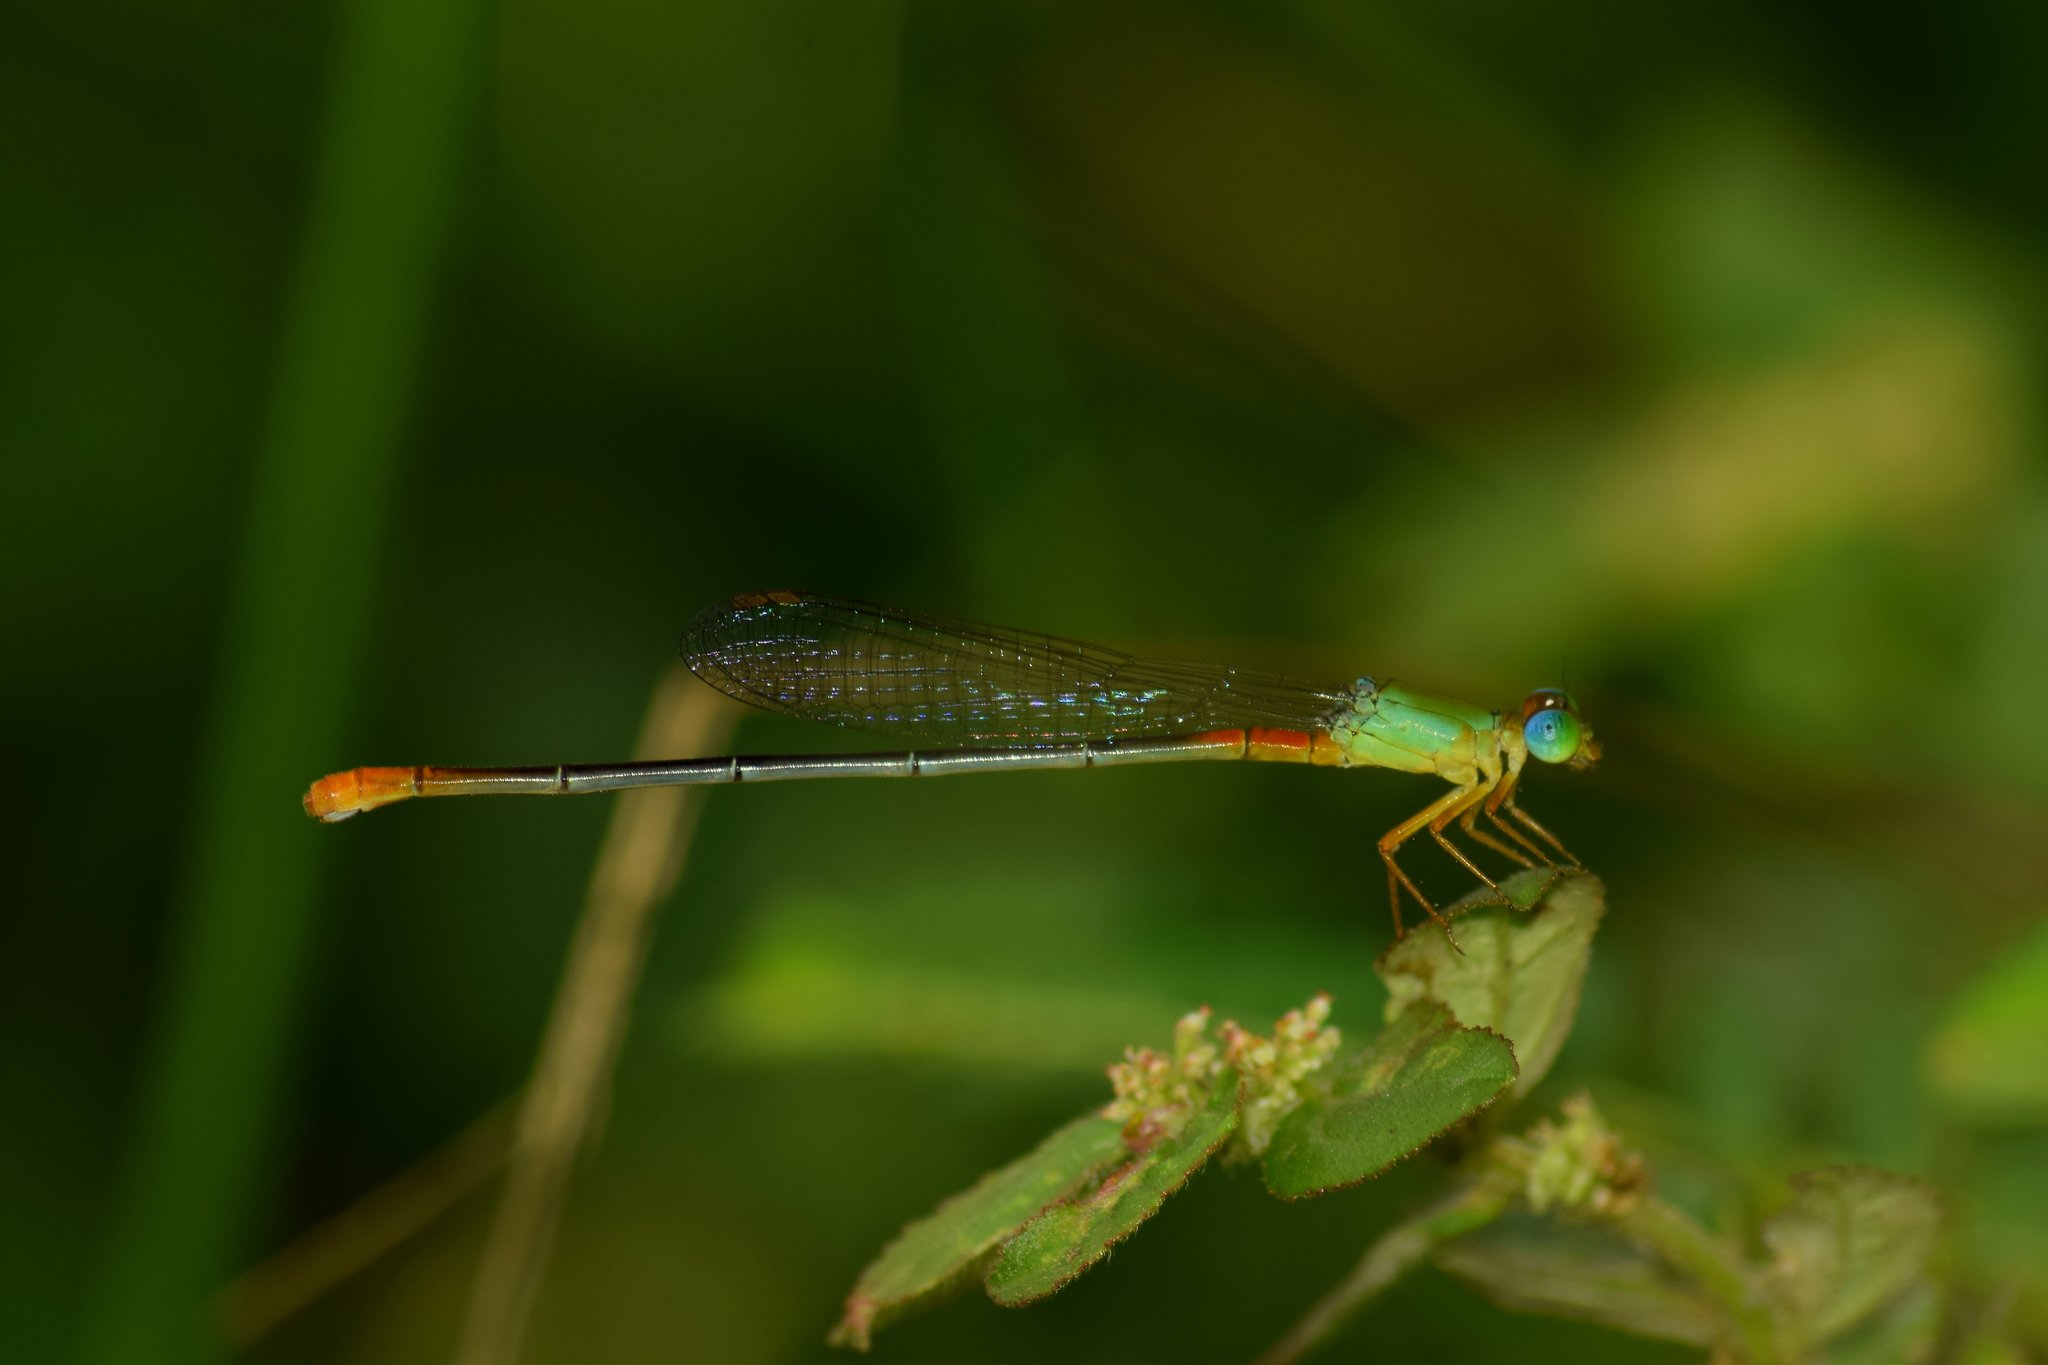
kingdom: Animalia
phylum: Arthropoda
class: Insecta
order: Odonata
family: Coenagrionidae
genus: Ceriagrion
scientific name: Ceriagrion cerinorubellum
